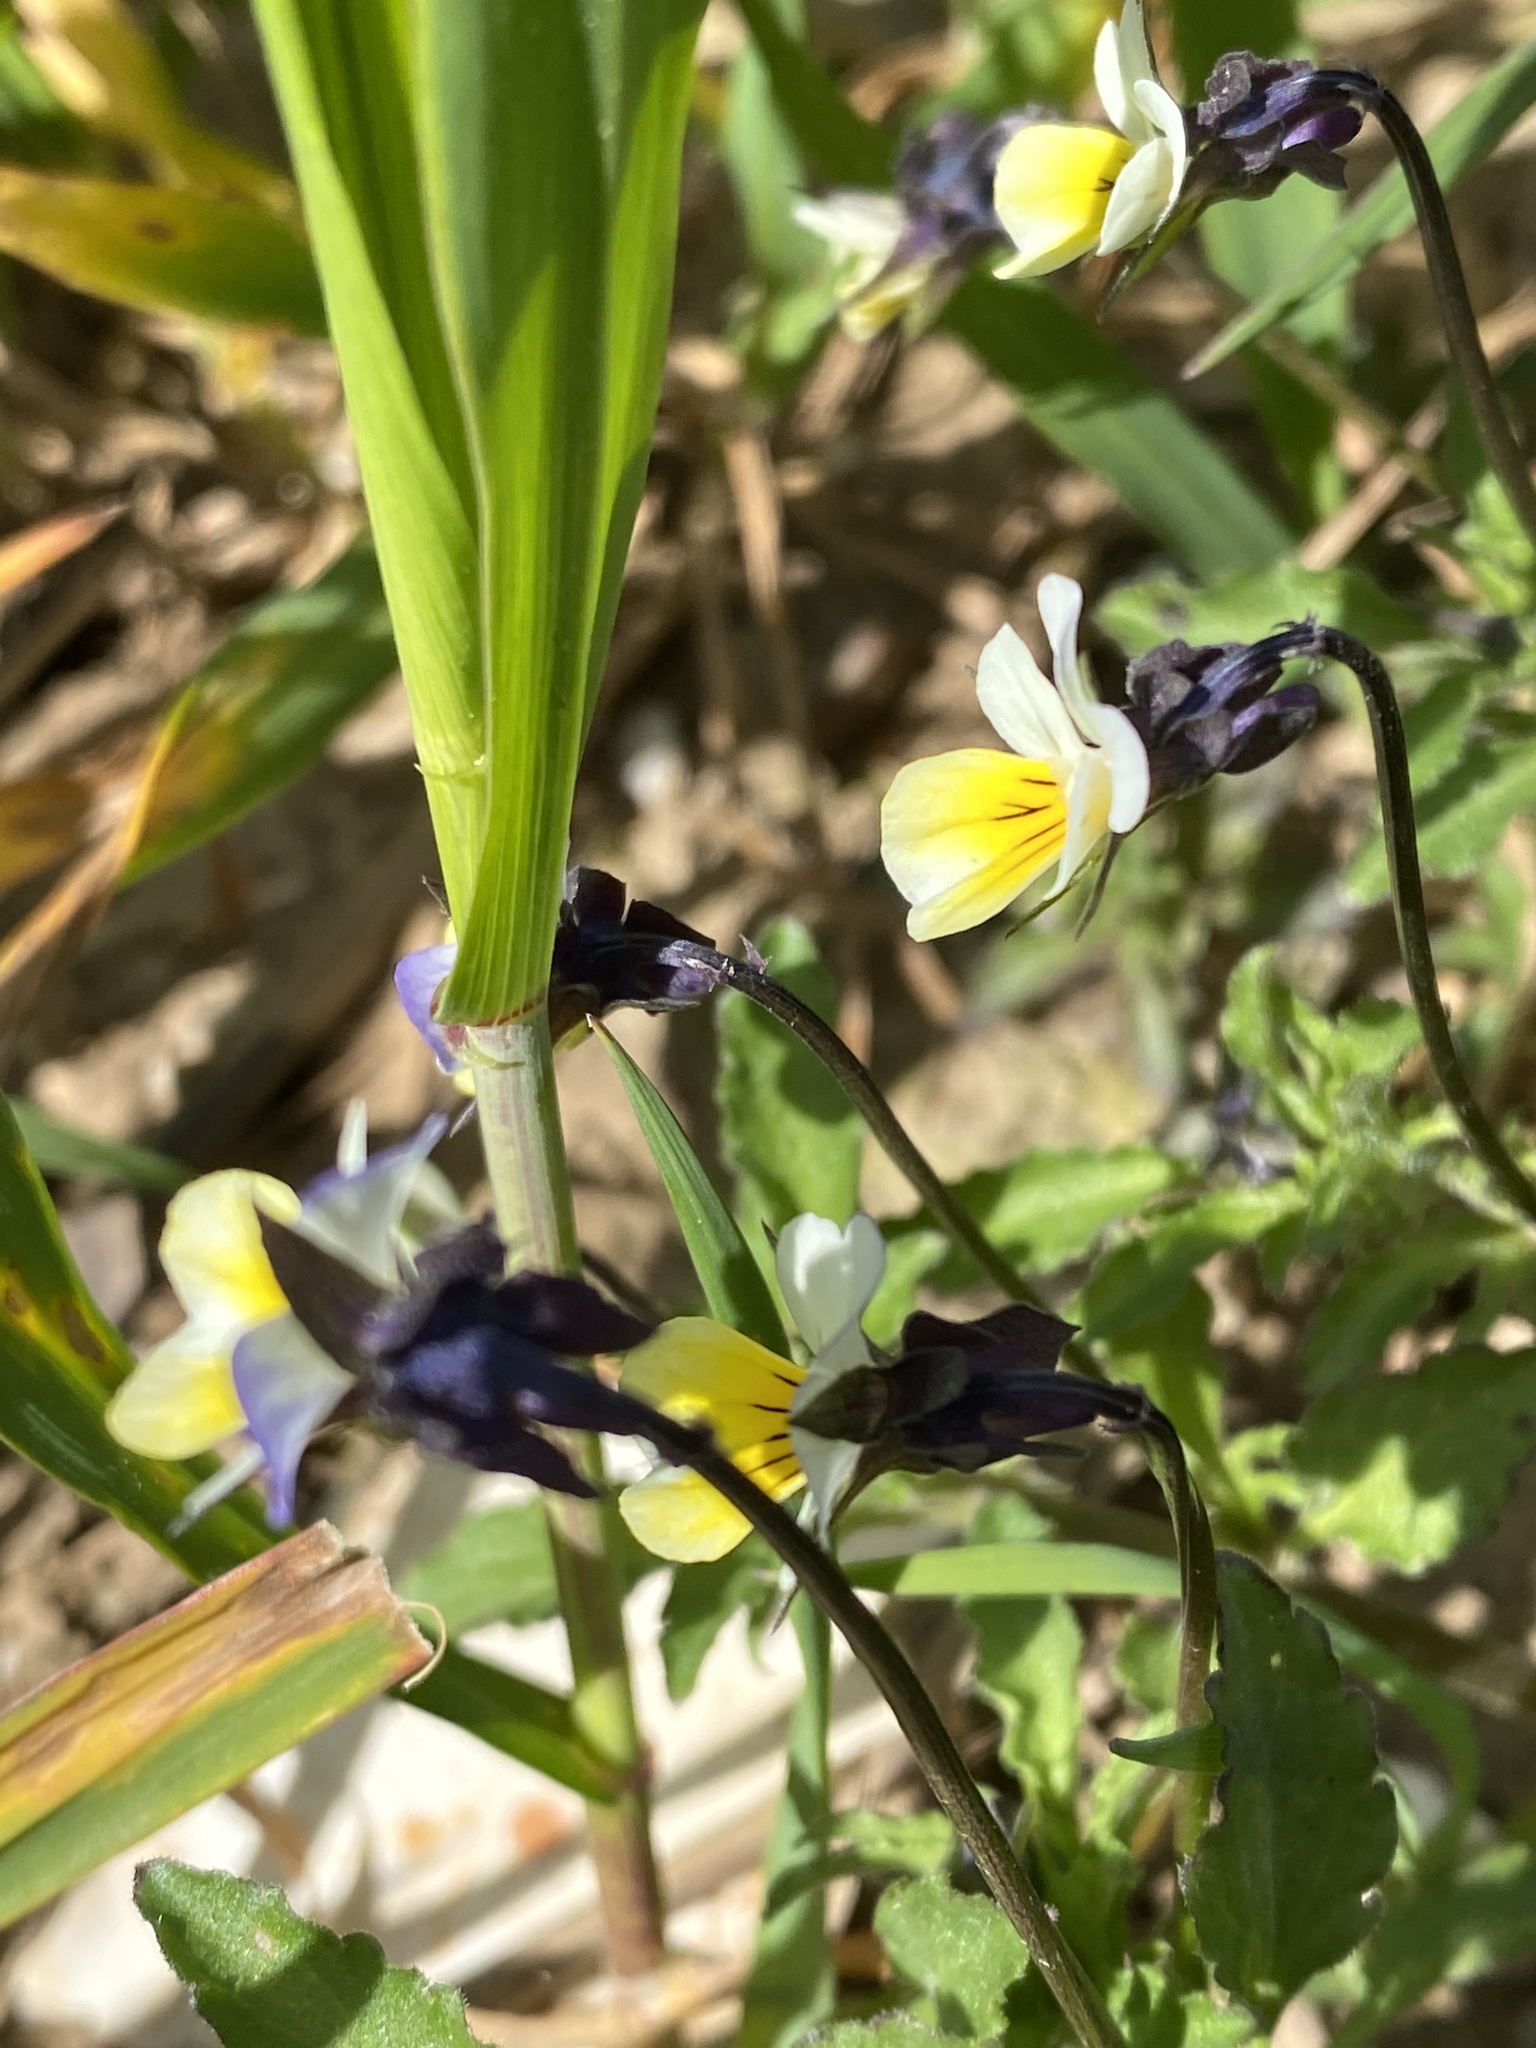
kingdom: Plantae
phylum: Tracheophyta
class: Magnoliopsida
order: Malpighiales
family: Violaceae
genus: Viola
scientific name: Viola arvensis
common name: Field pansy
